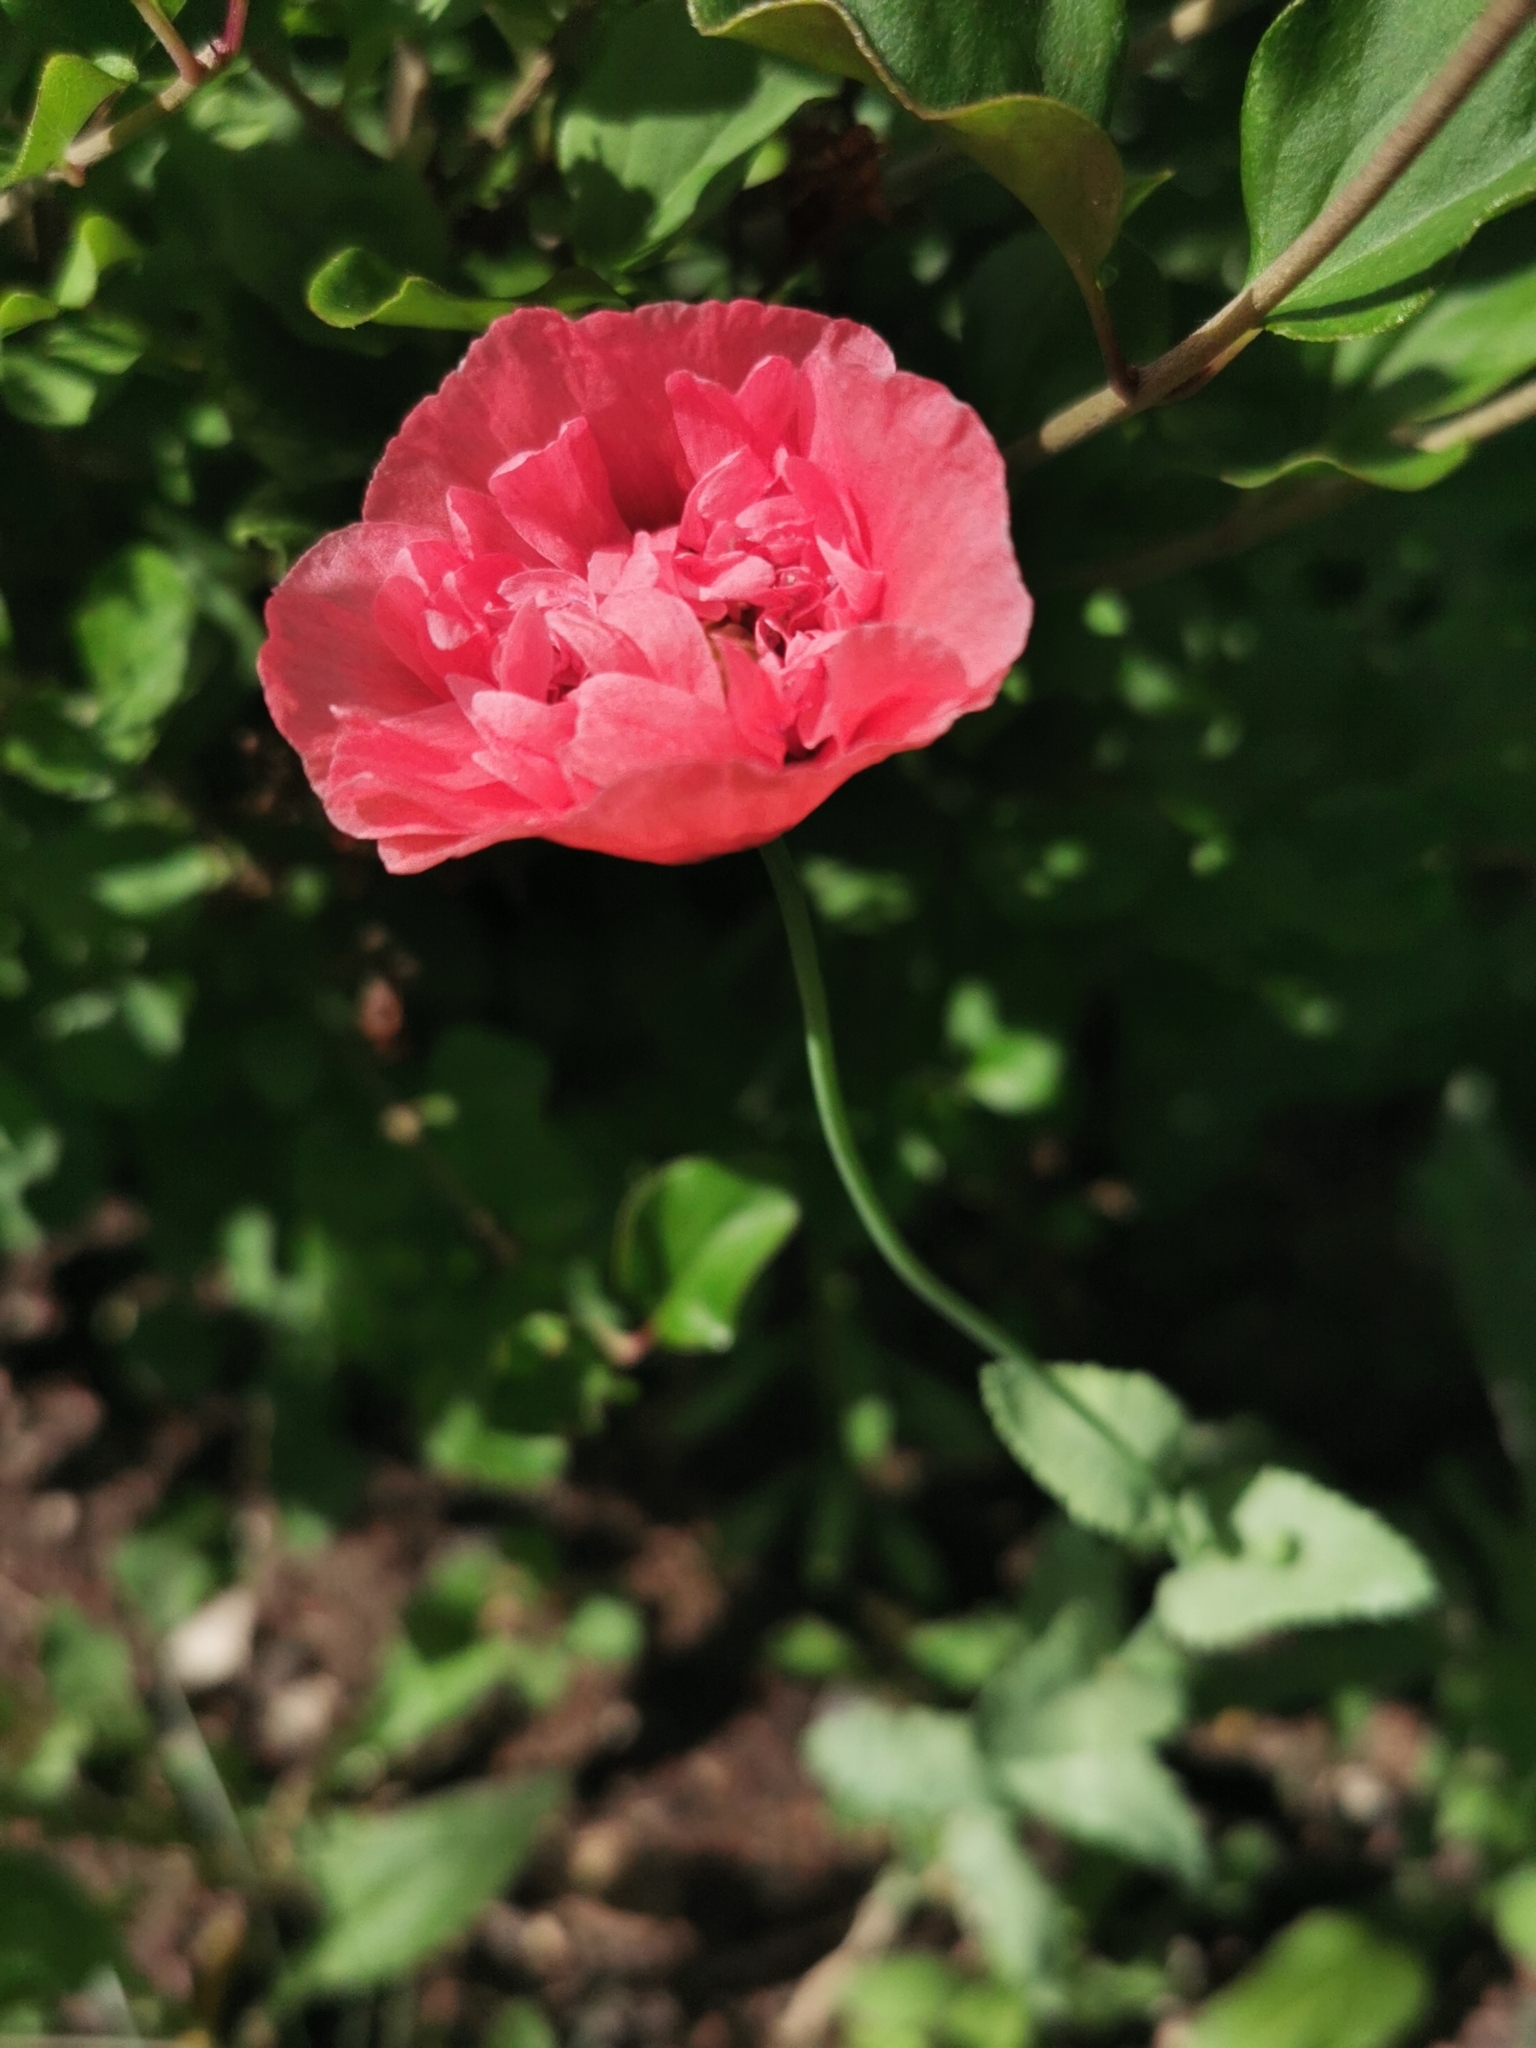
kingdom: Plantae
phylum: Tracheophyta
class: Magnoliopsida
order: Ranunculales
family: Papaveraceae
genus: Papaver
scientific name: Papaver somniferum
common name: Opium poppy
